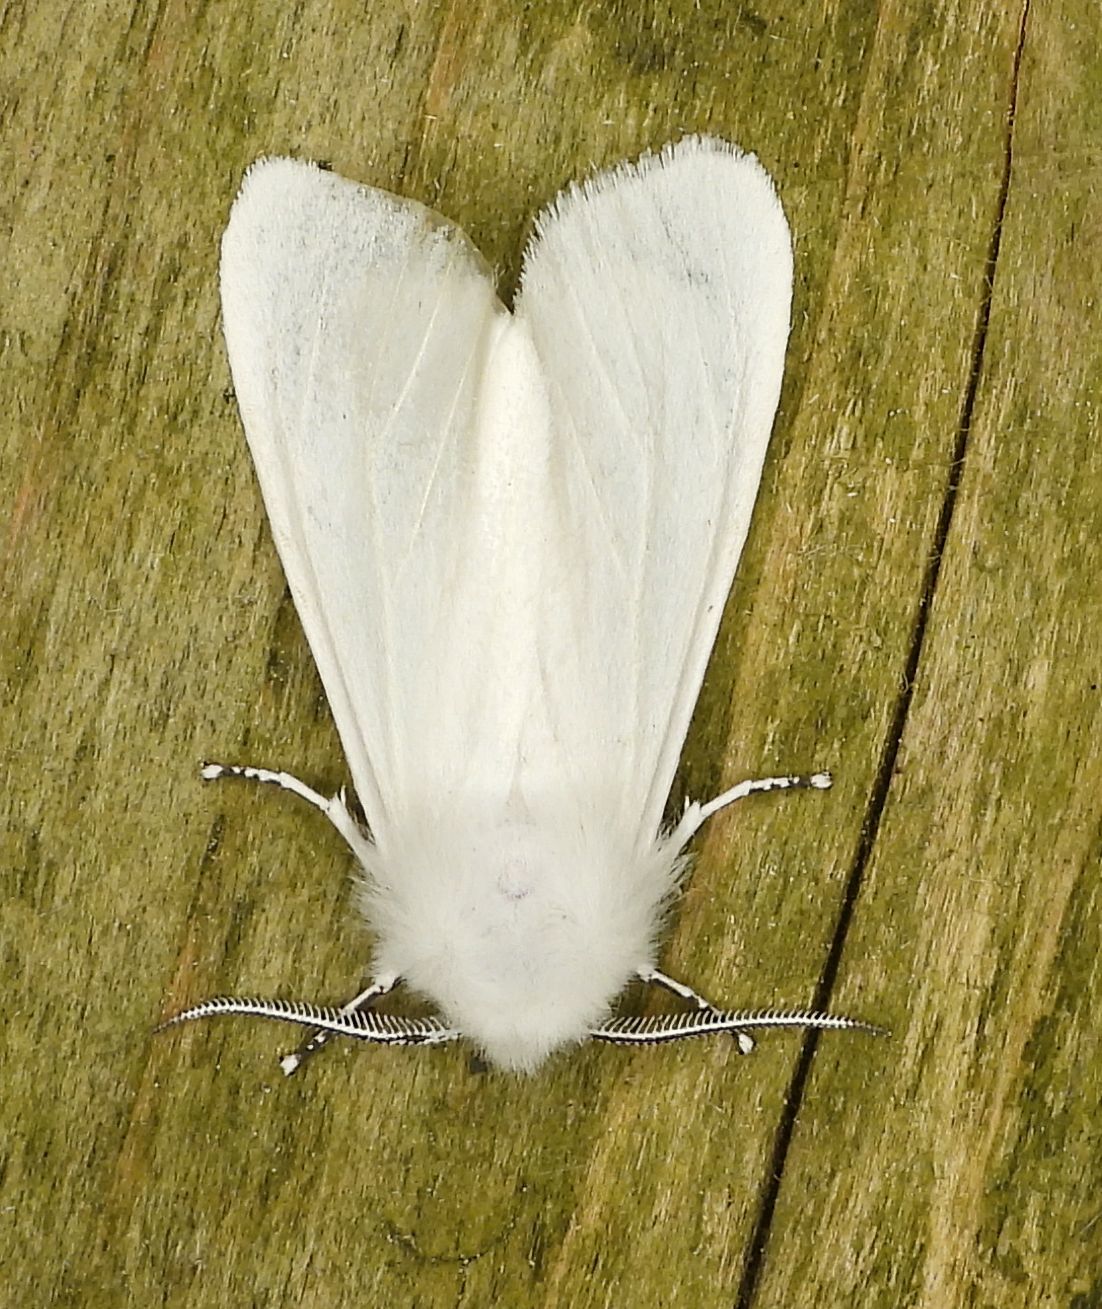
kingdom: Animalia
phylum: Arthropoda
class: Insecta
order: Lepidoptera
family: Erebidae
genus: Hyphantria
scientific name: Hyphantria cunea
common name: American white moth
